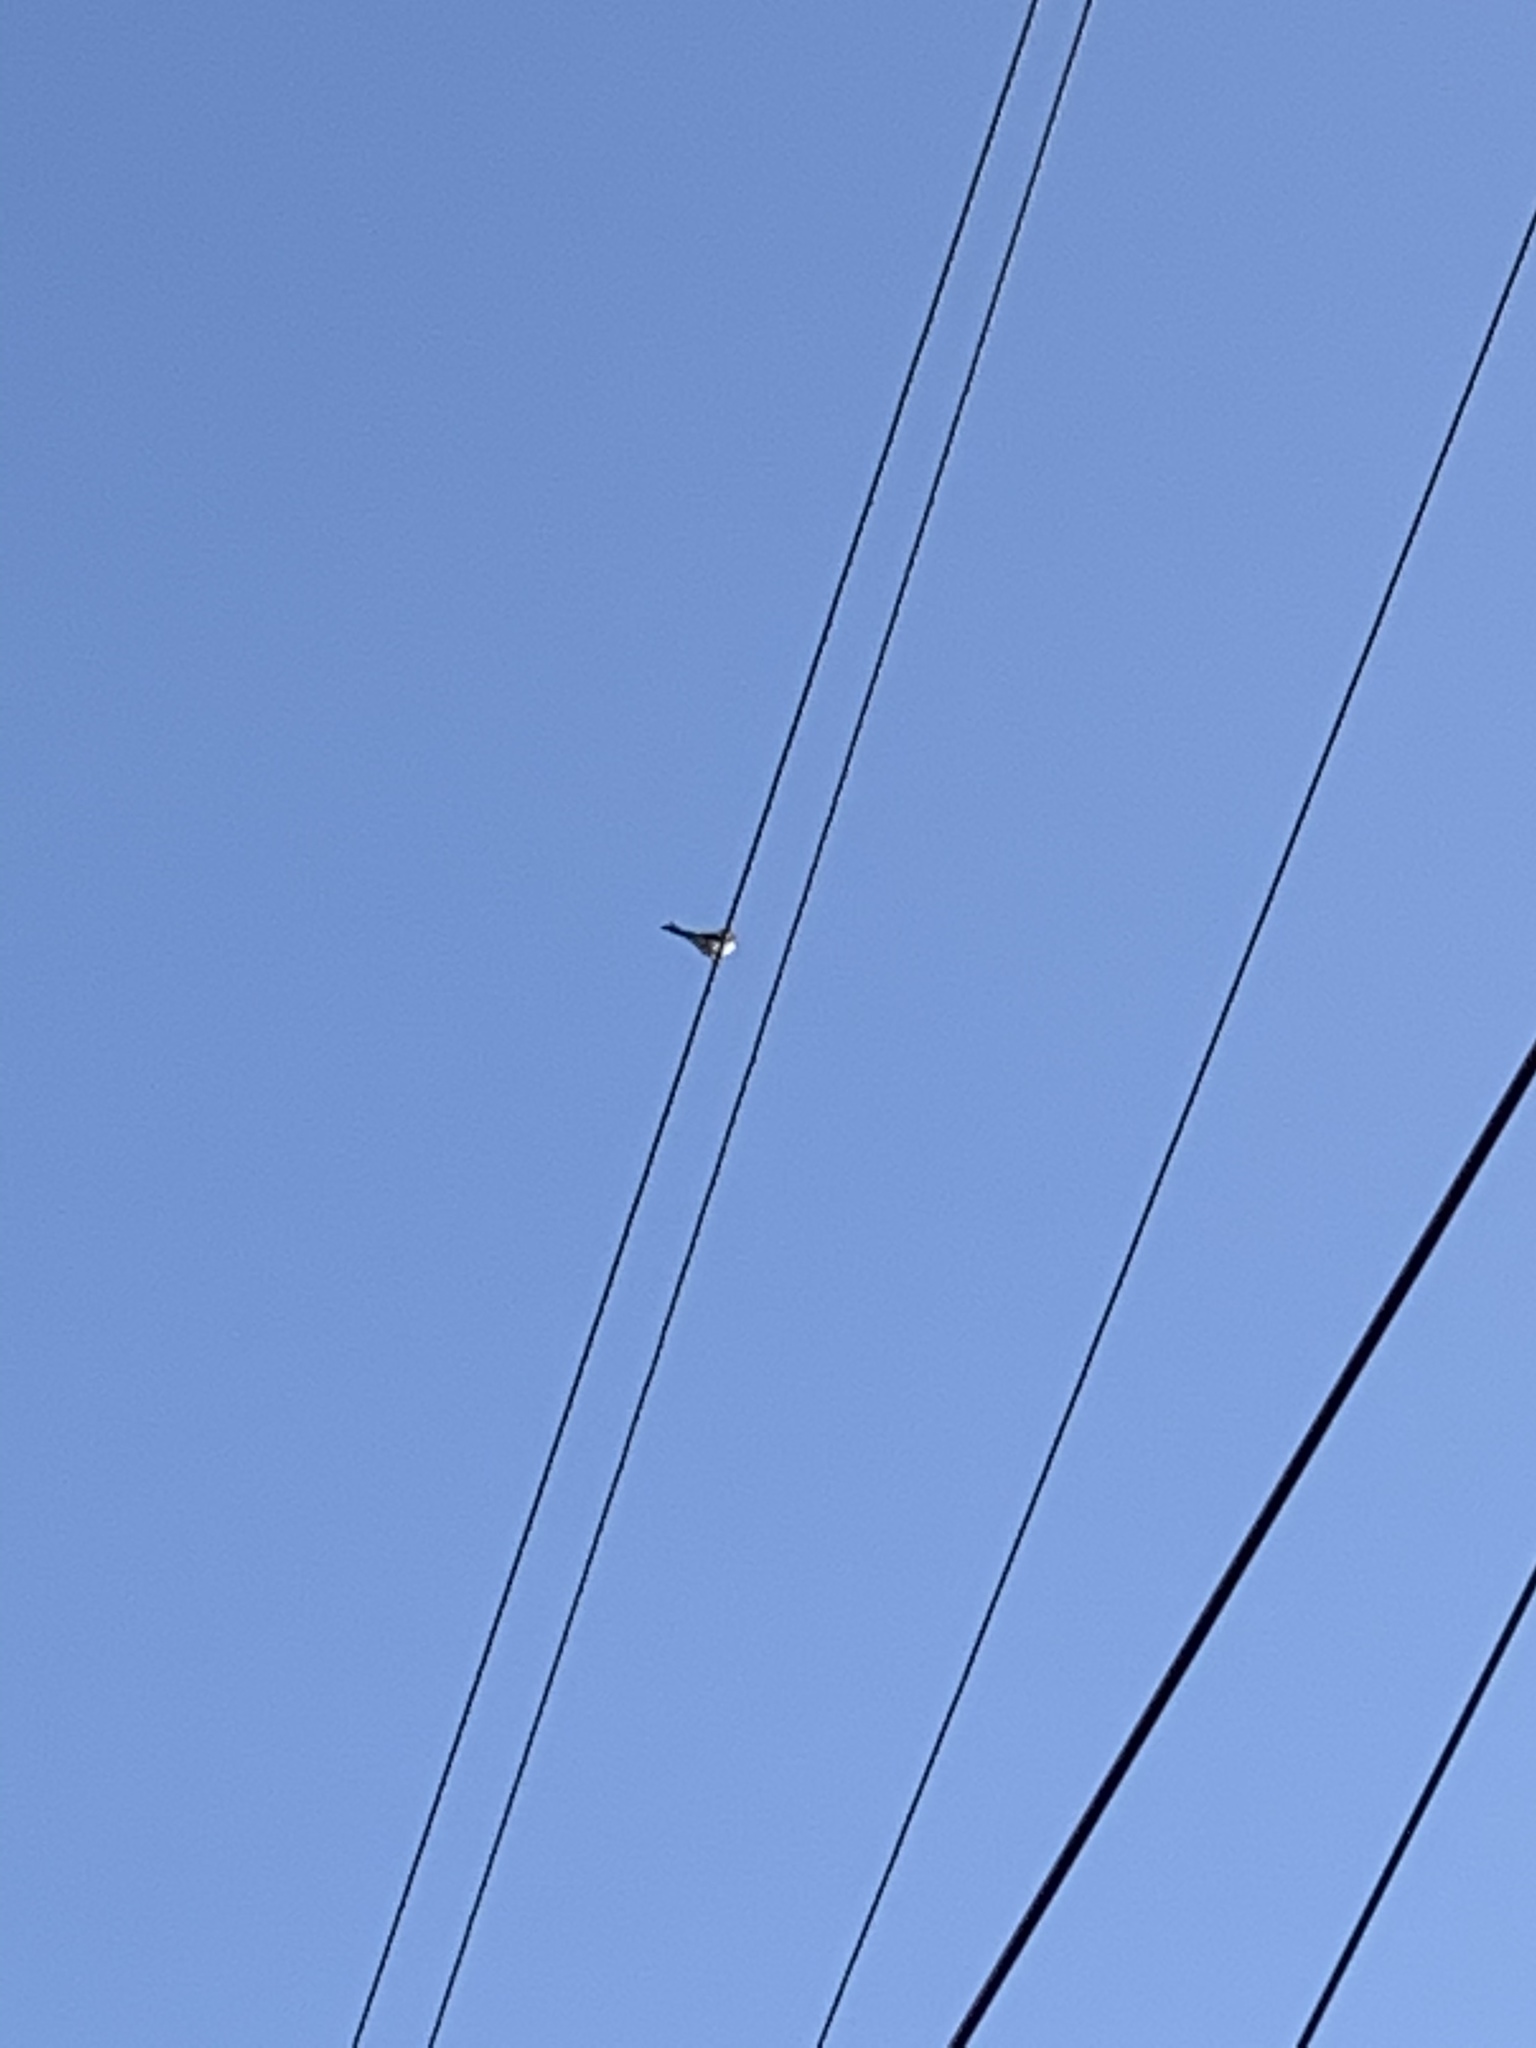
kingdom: Animalia
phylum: Chordata
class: Aves
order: Passeriformes
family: Tyrannidae
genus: Tyrannus
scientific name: Tyrannus dominicensis
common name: Gray kingbird
